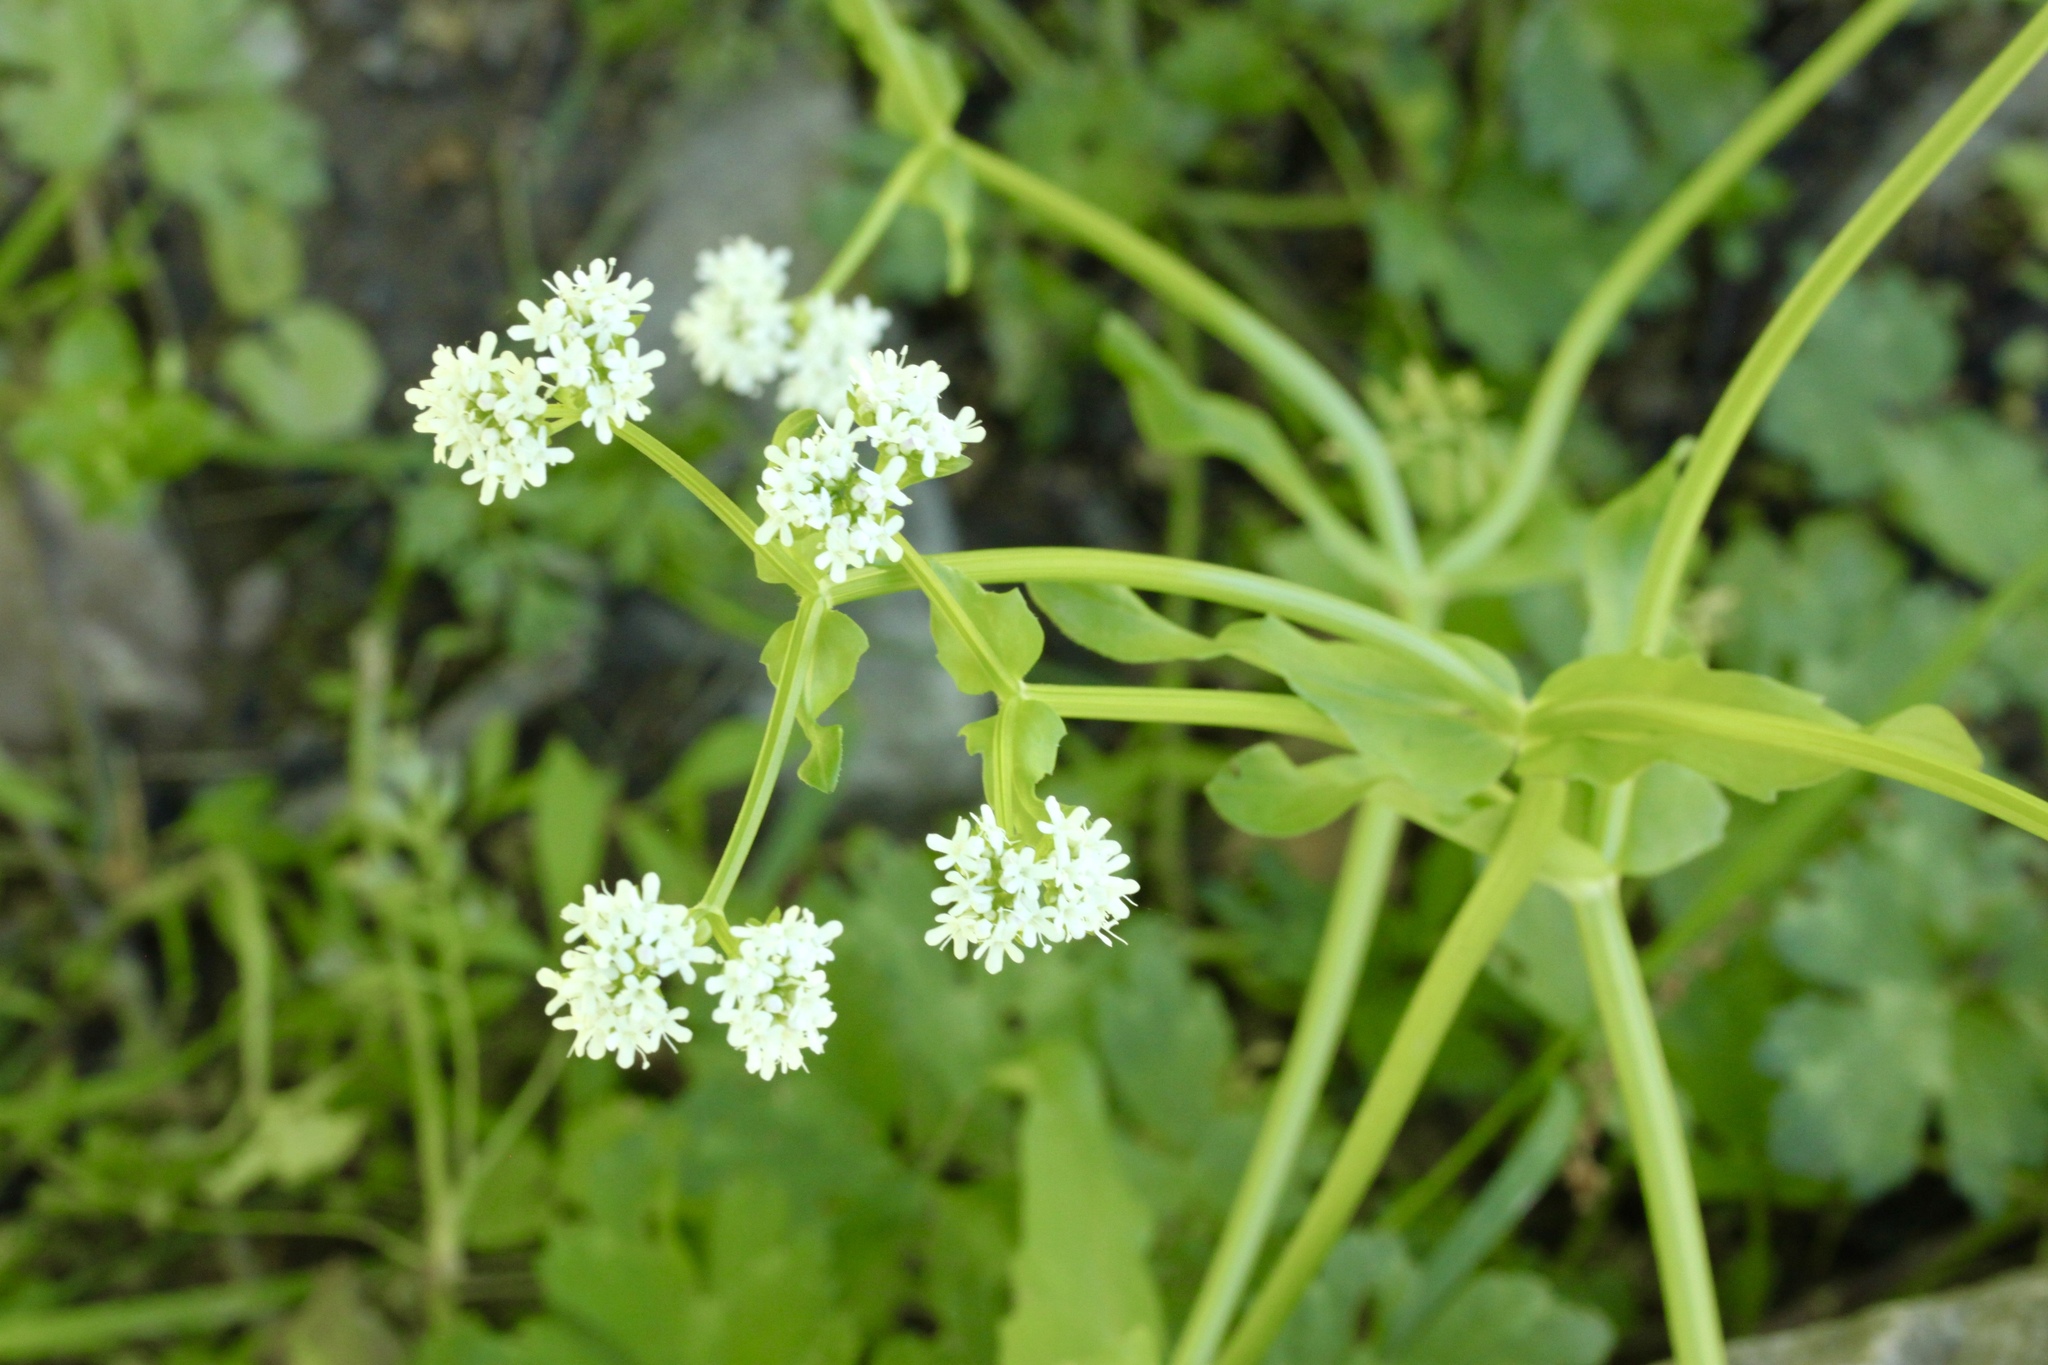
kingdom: Plantae
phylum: Tracheophyta
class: Magnoliopsida
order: Dipsacales
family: Caprifoliaceae
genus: Valerianella
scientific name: Valerianella locusta
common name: Common cornsalad
